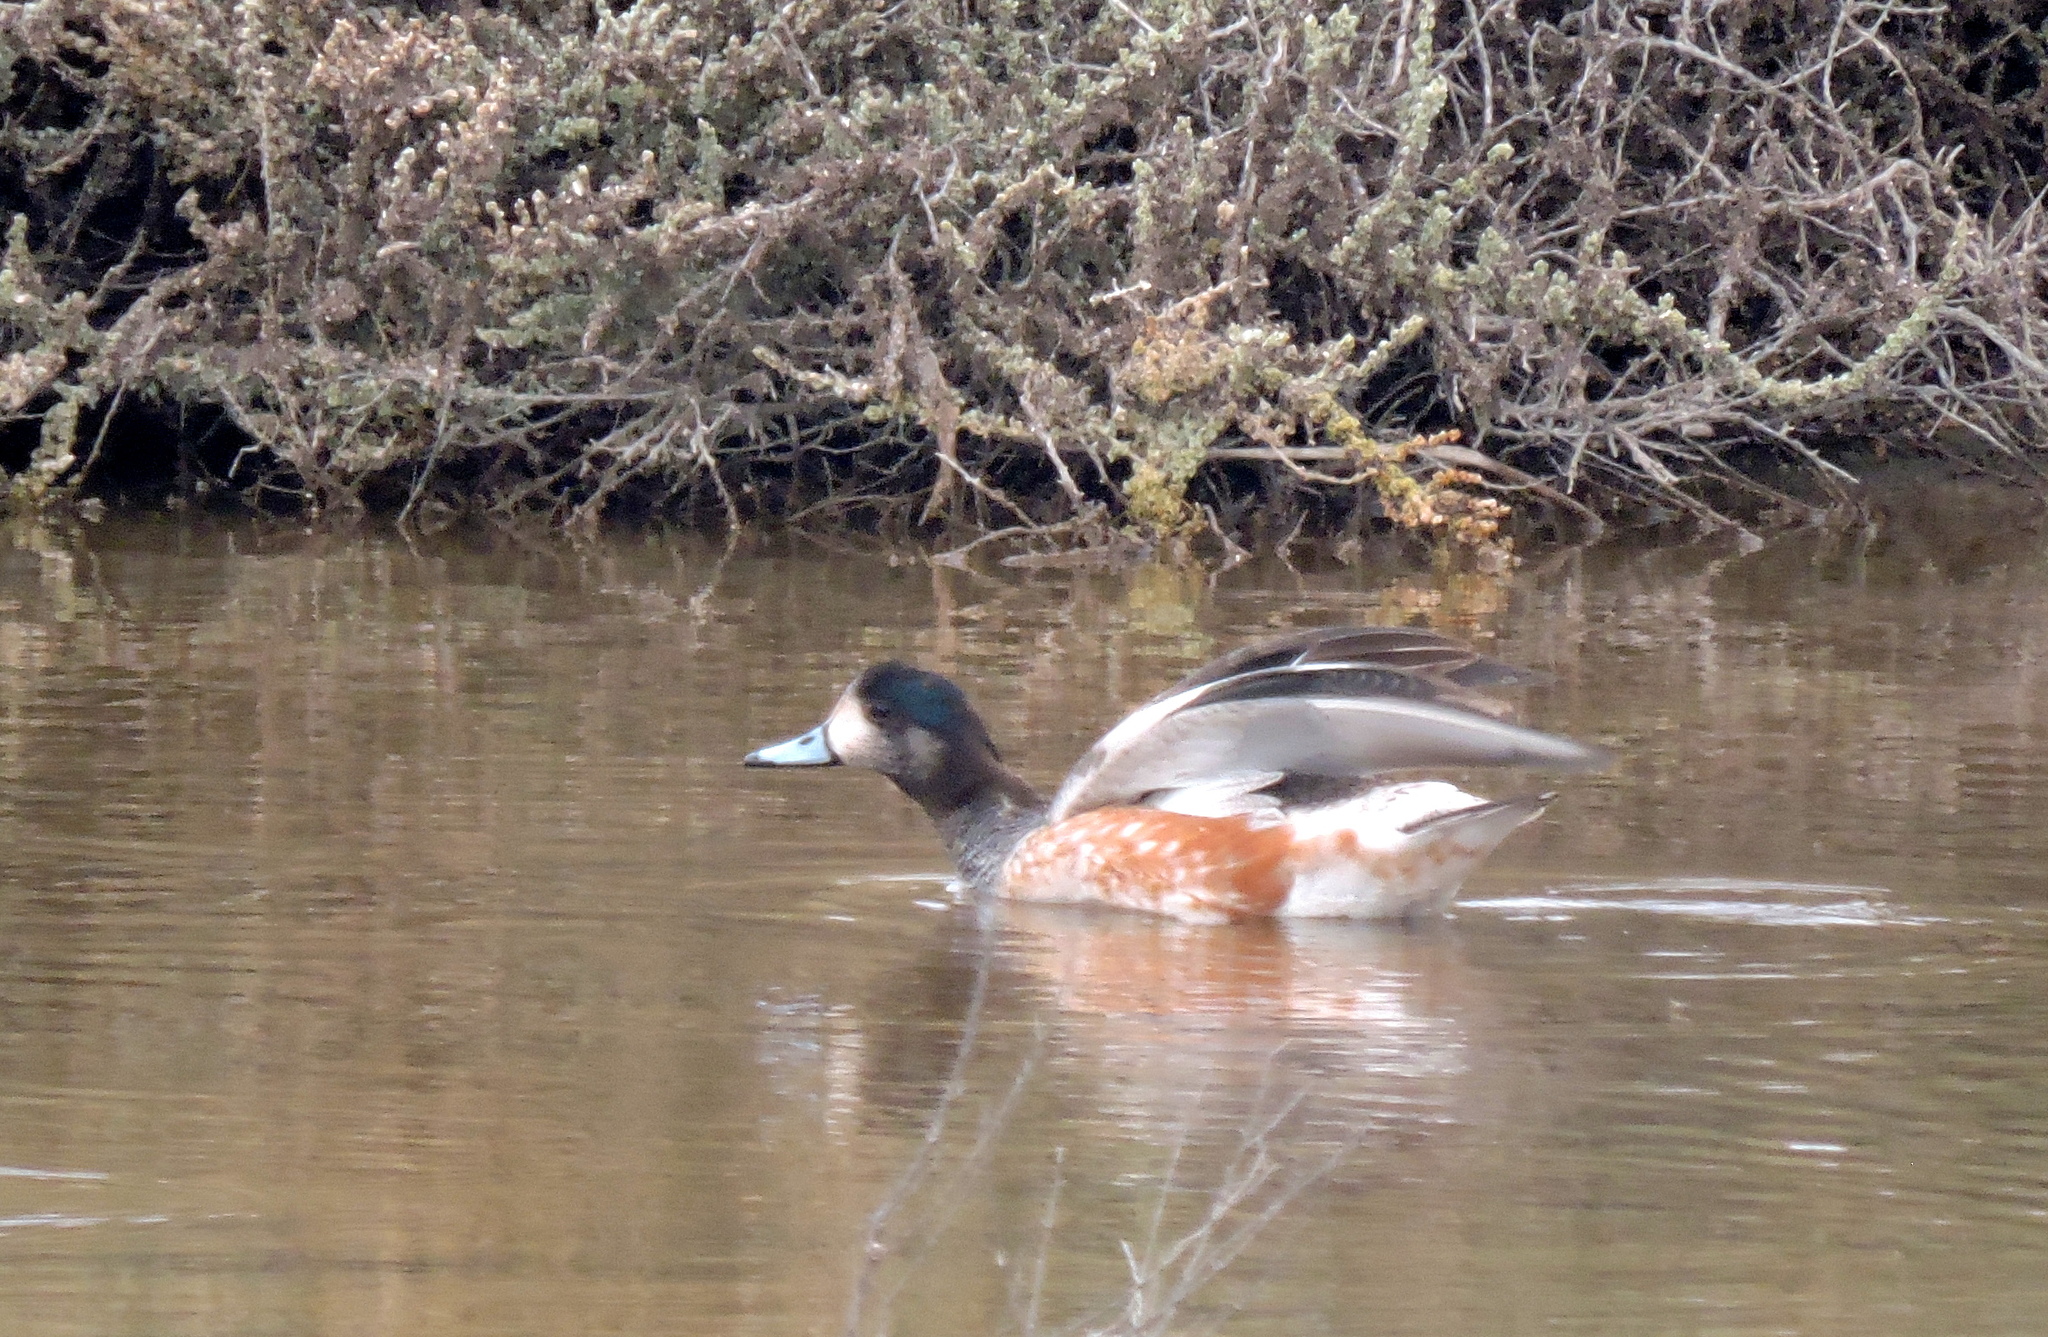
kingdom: Animalia
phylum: Chordata
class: Aves
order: Anseriformes
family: Anatidae
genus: Mareca
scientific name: Mareca sibilatrix
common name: Chiloe wigeon
